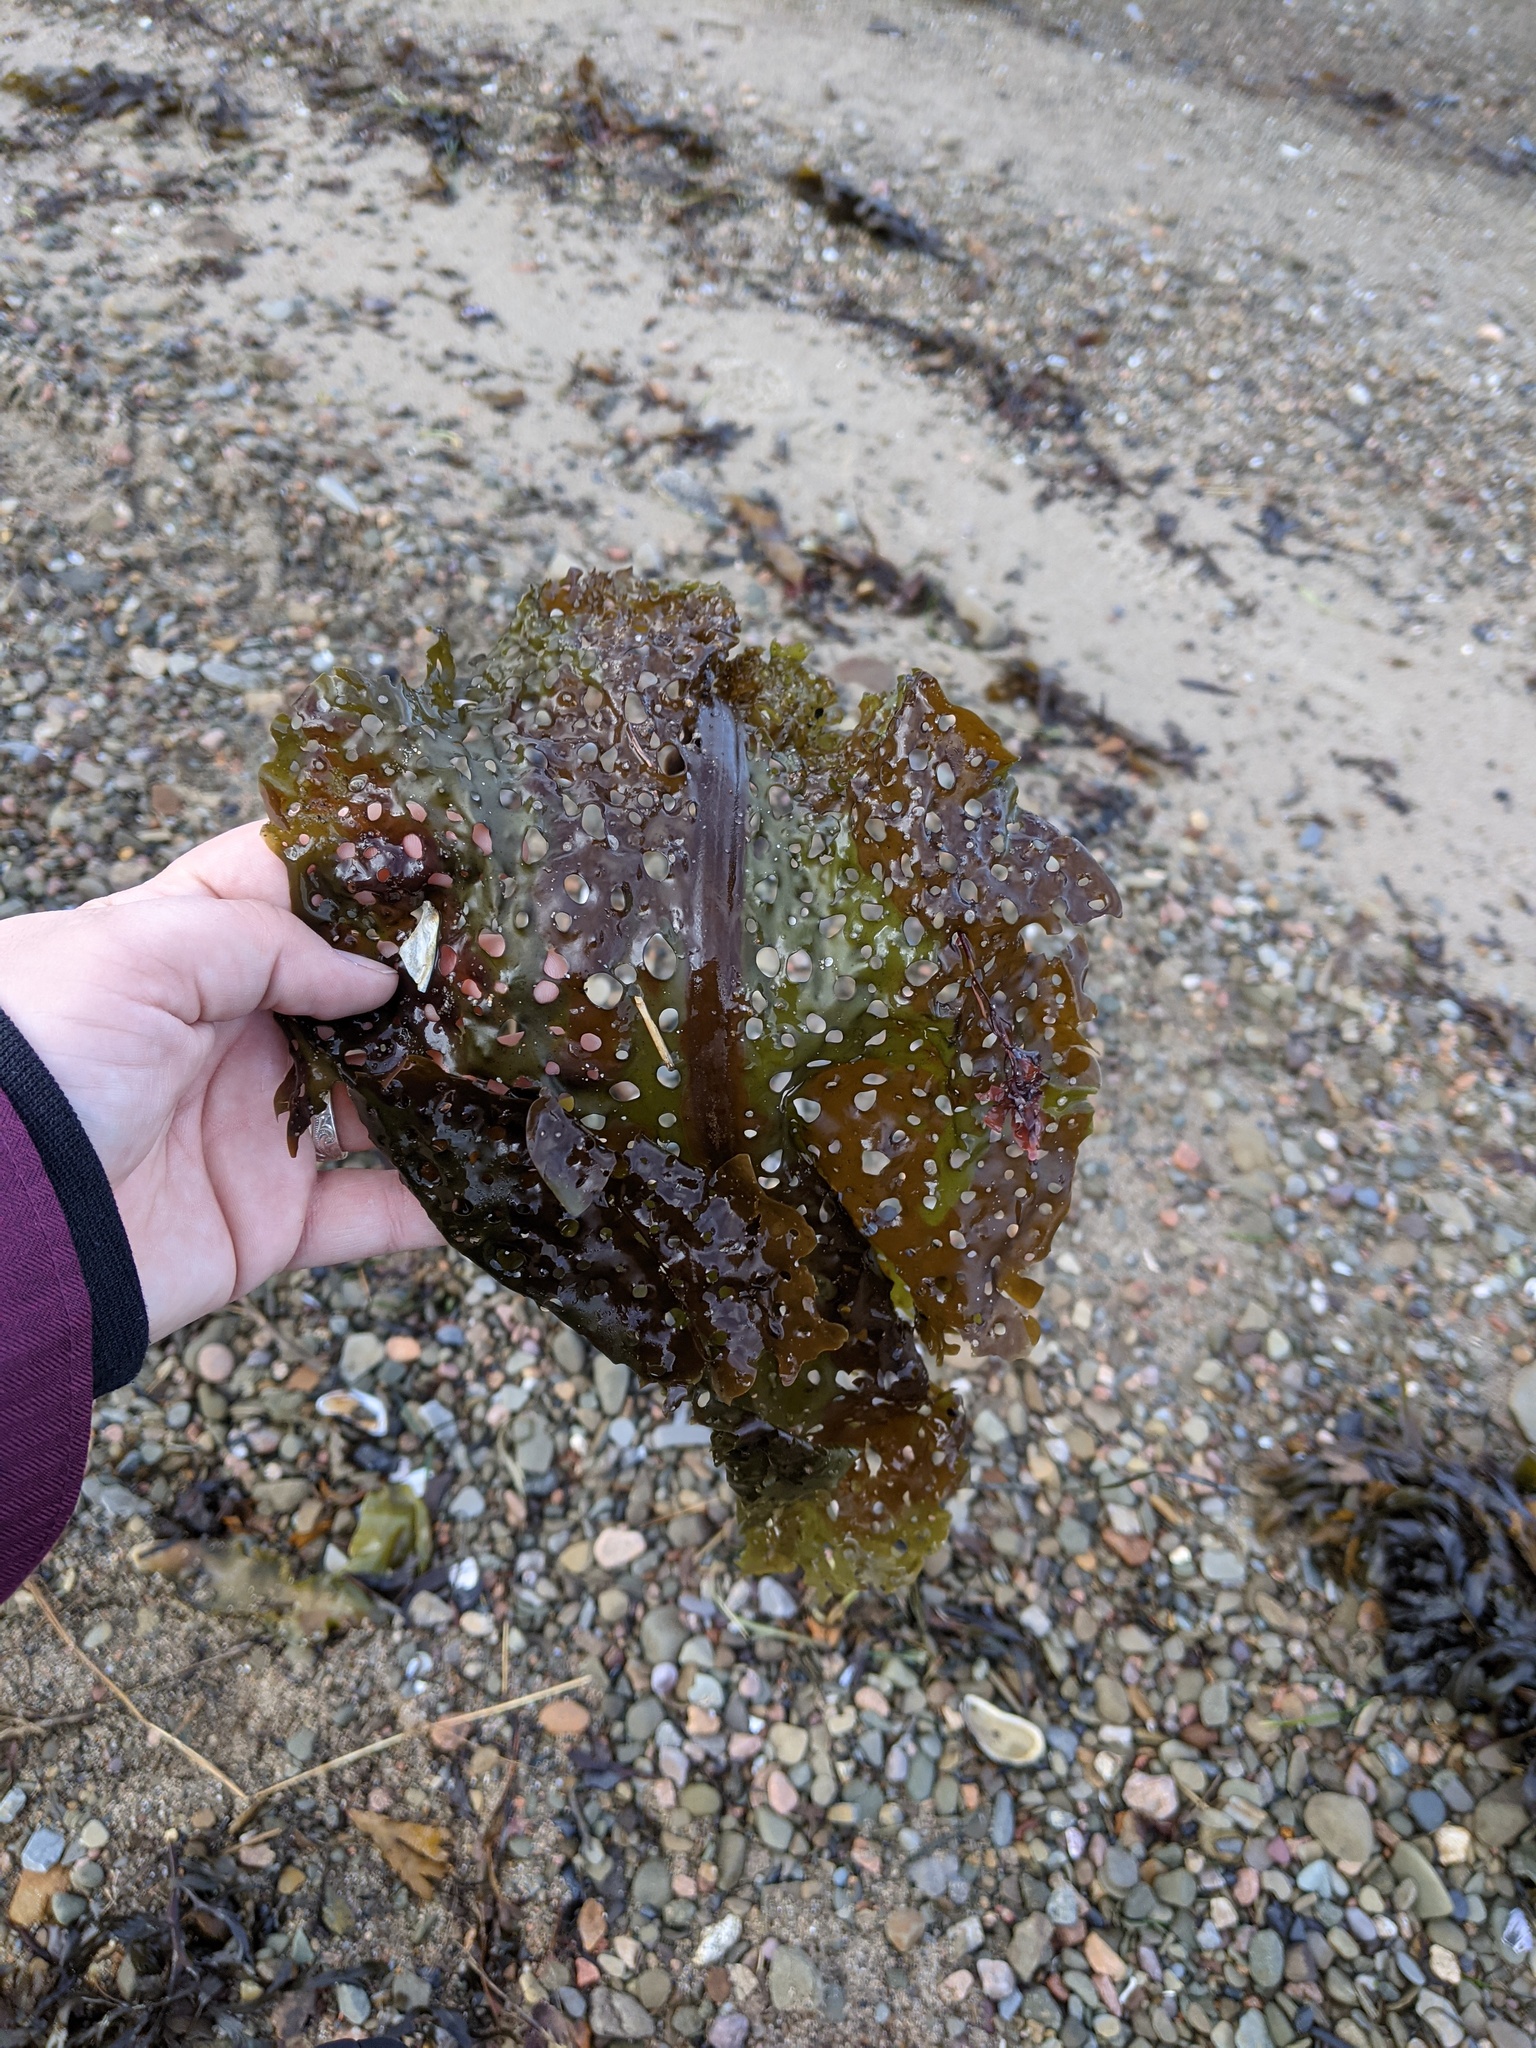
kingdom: Chromista
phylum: Ochrophyta
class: Phaeophyceae
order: Laminariales
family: Costariaceae
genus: Agarum
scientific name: Agarum clathratum
